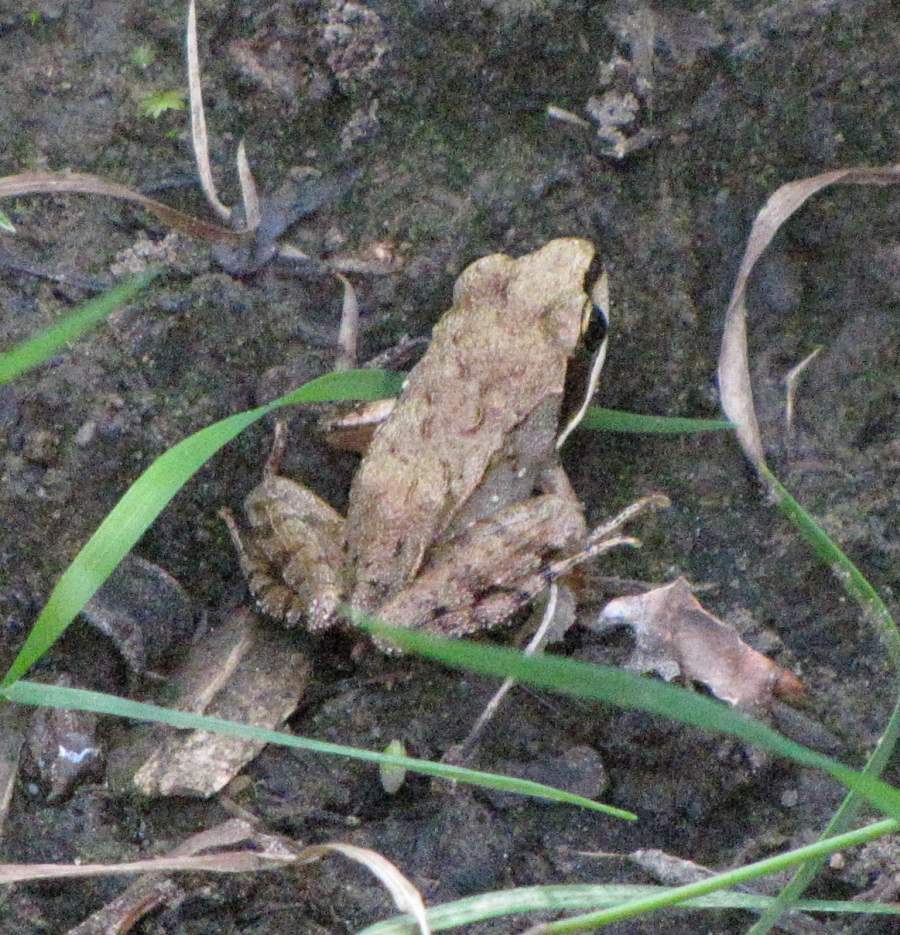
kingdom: Animalia
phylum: Chordata
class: Amphibia
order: Anura
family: Ranidae
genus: Lithobates
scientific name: Lithobates sylvaticus
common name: Wood frog
